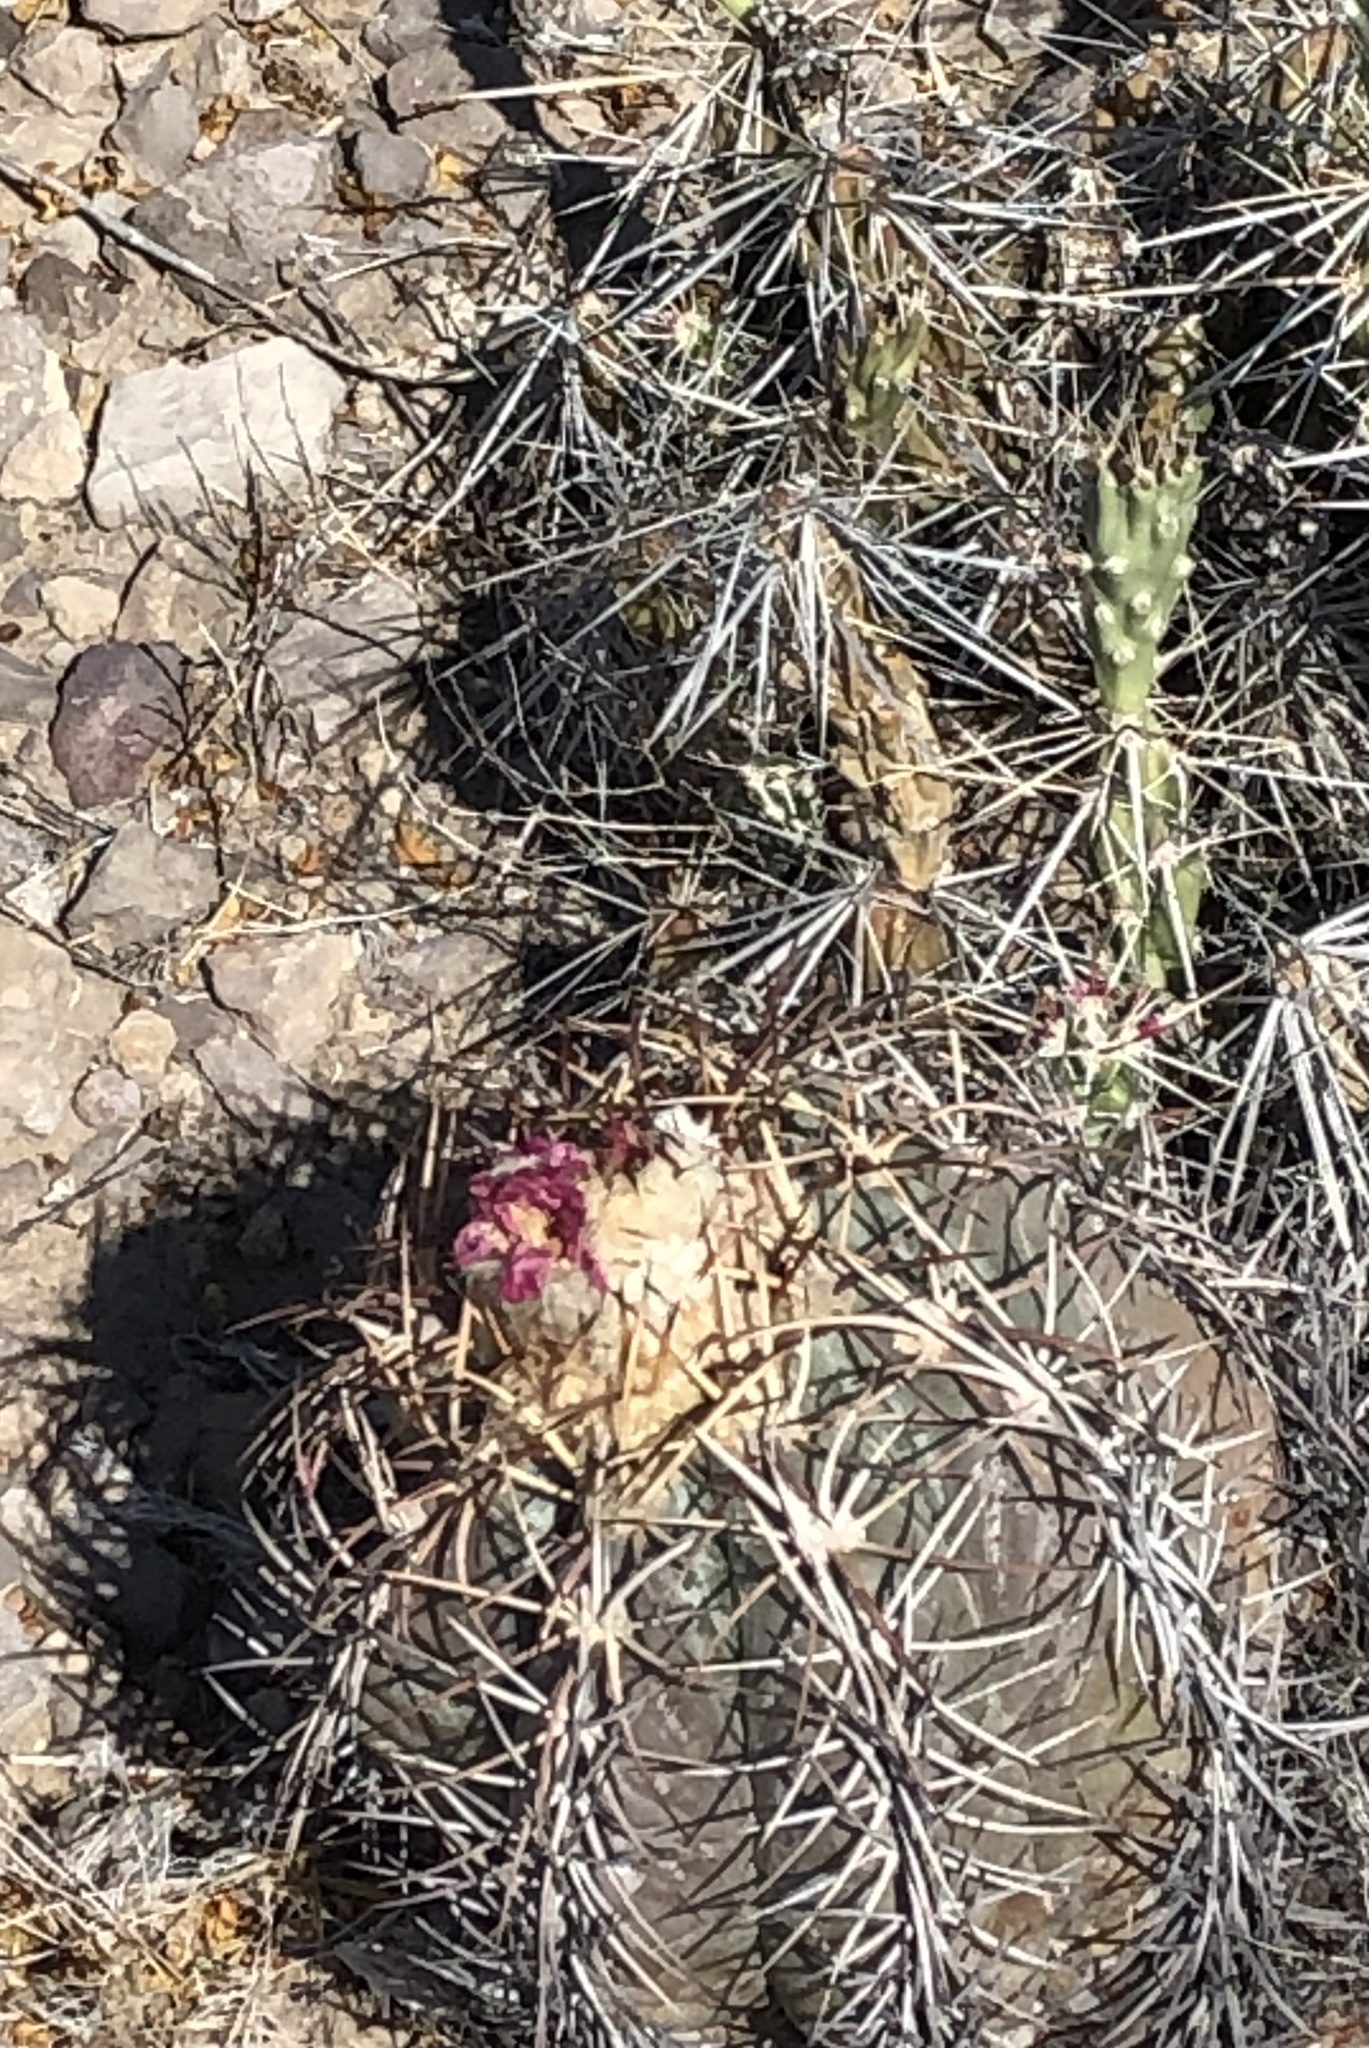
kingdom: Plantae
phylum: Tracheophyta
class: Magnoliopsida
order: Caryophyllales
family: Cactaceae
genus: Echinocactus
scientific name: Echinocactus horizonthalonius
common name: Devilshead
